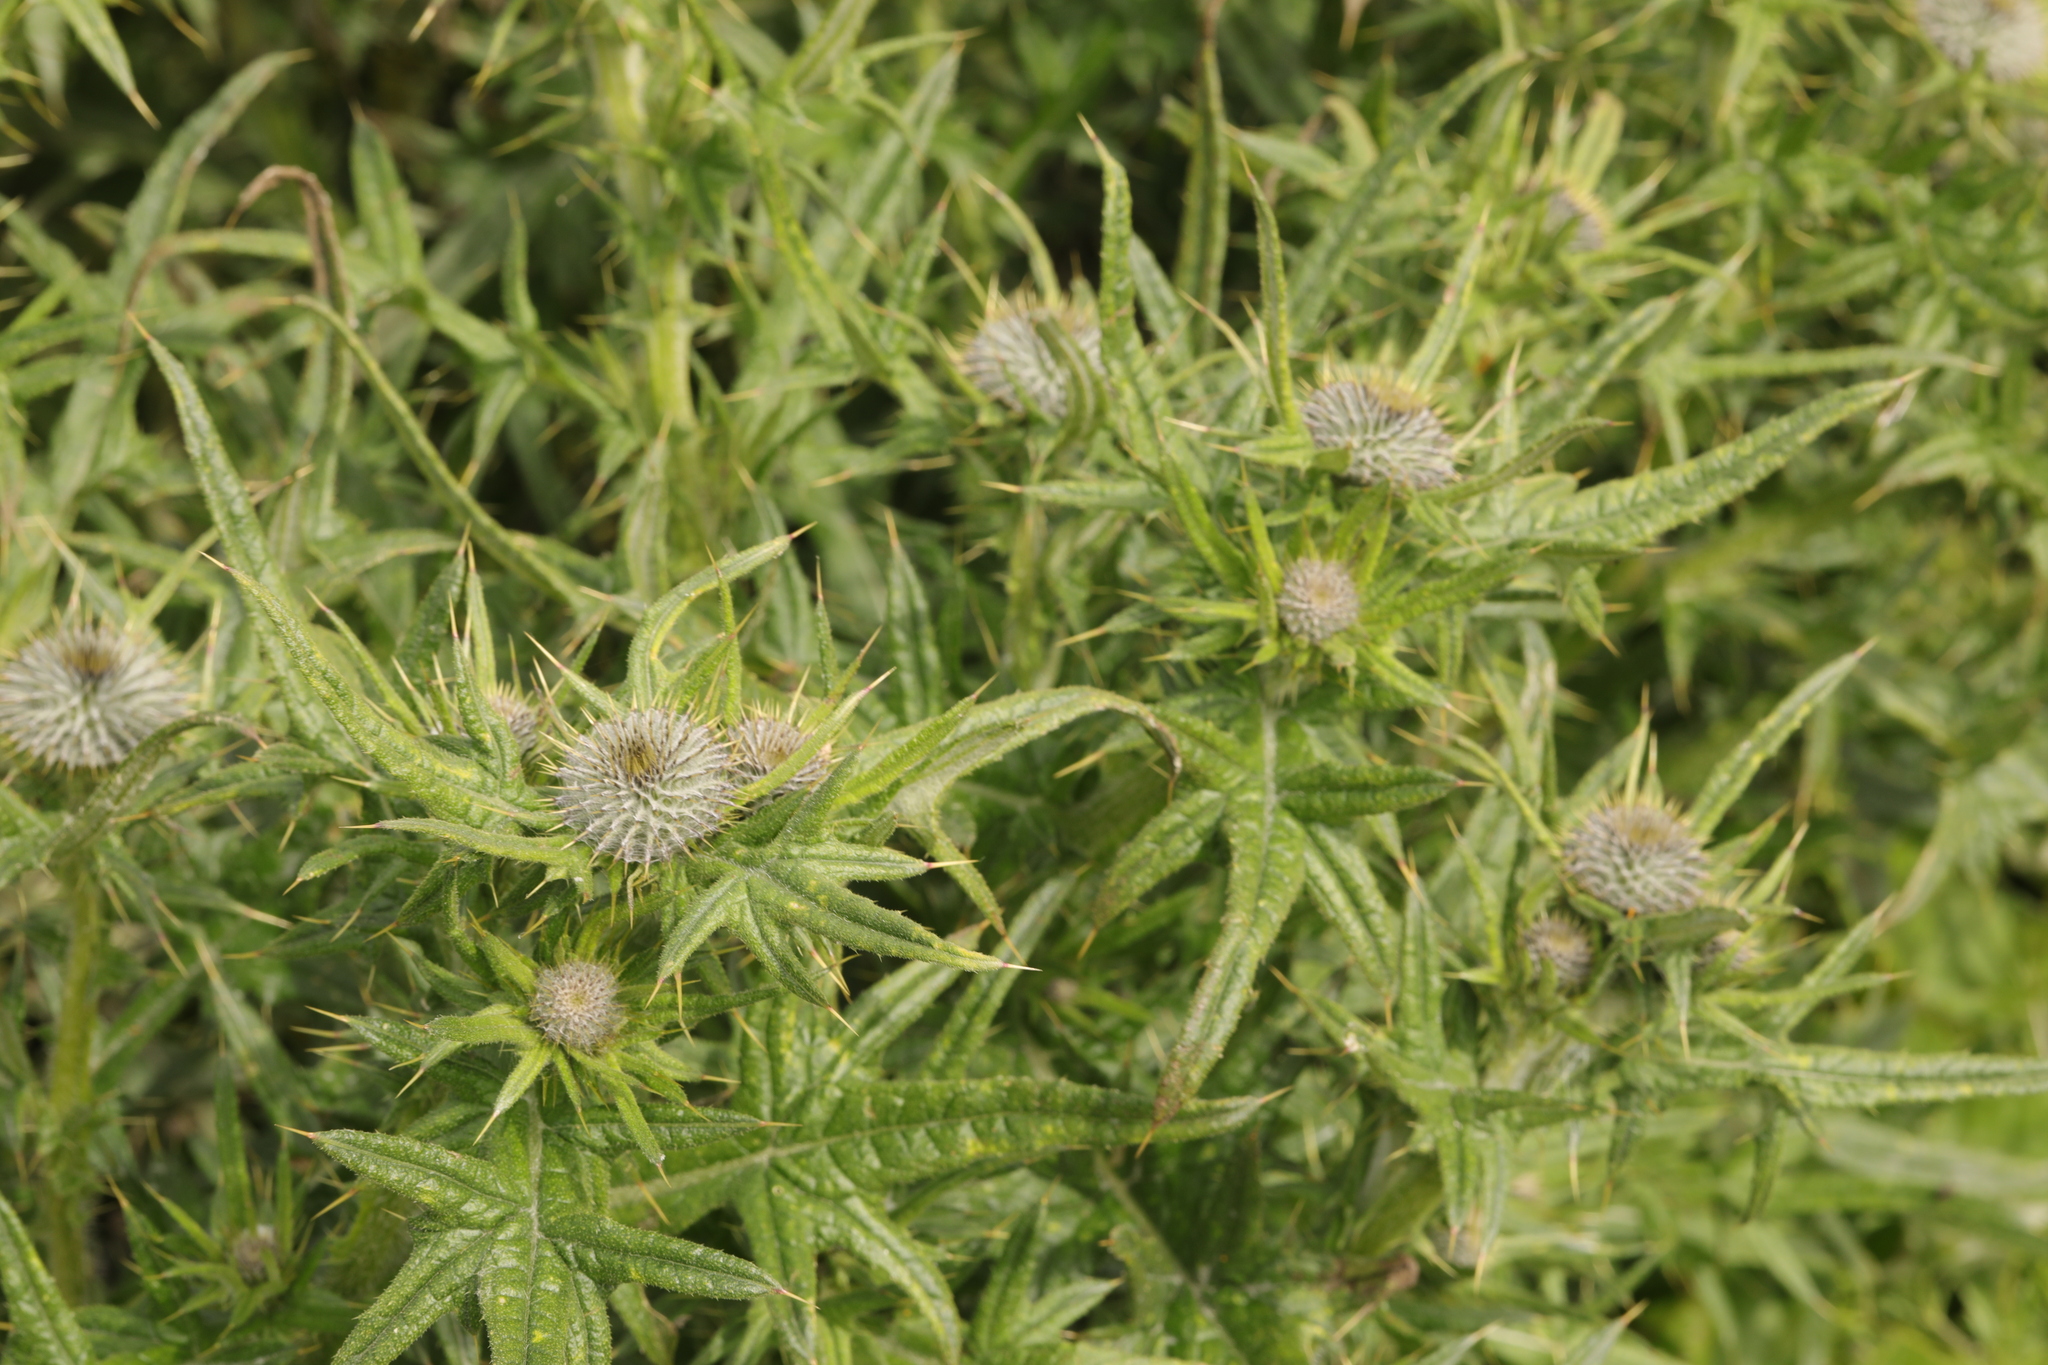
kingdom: Plantae
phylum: Tracheophyta
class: Magnoliopsida
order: Asterales
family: Asteraceae
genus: Cirsium
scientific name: Cirsium vulgare
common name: Bull thistle
